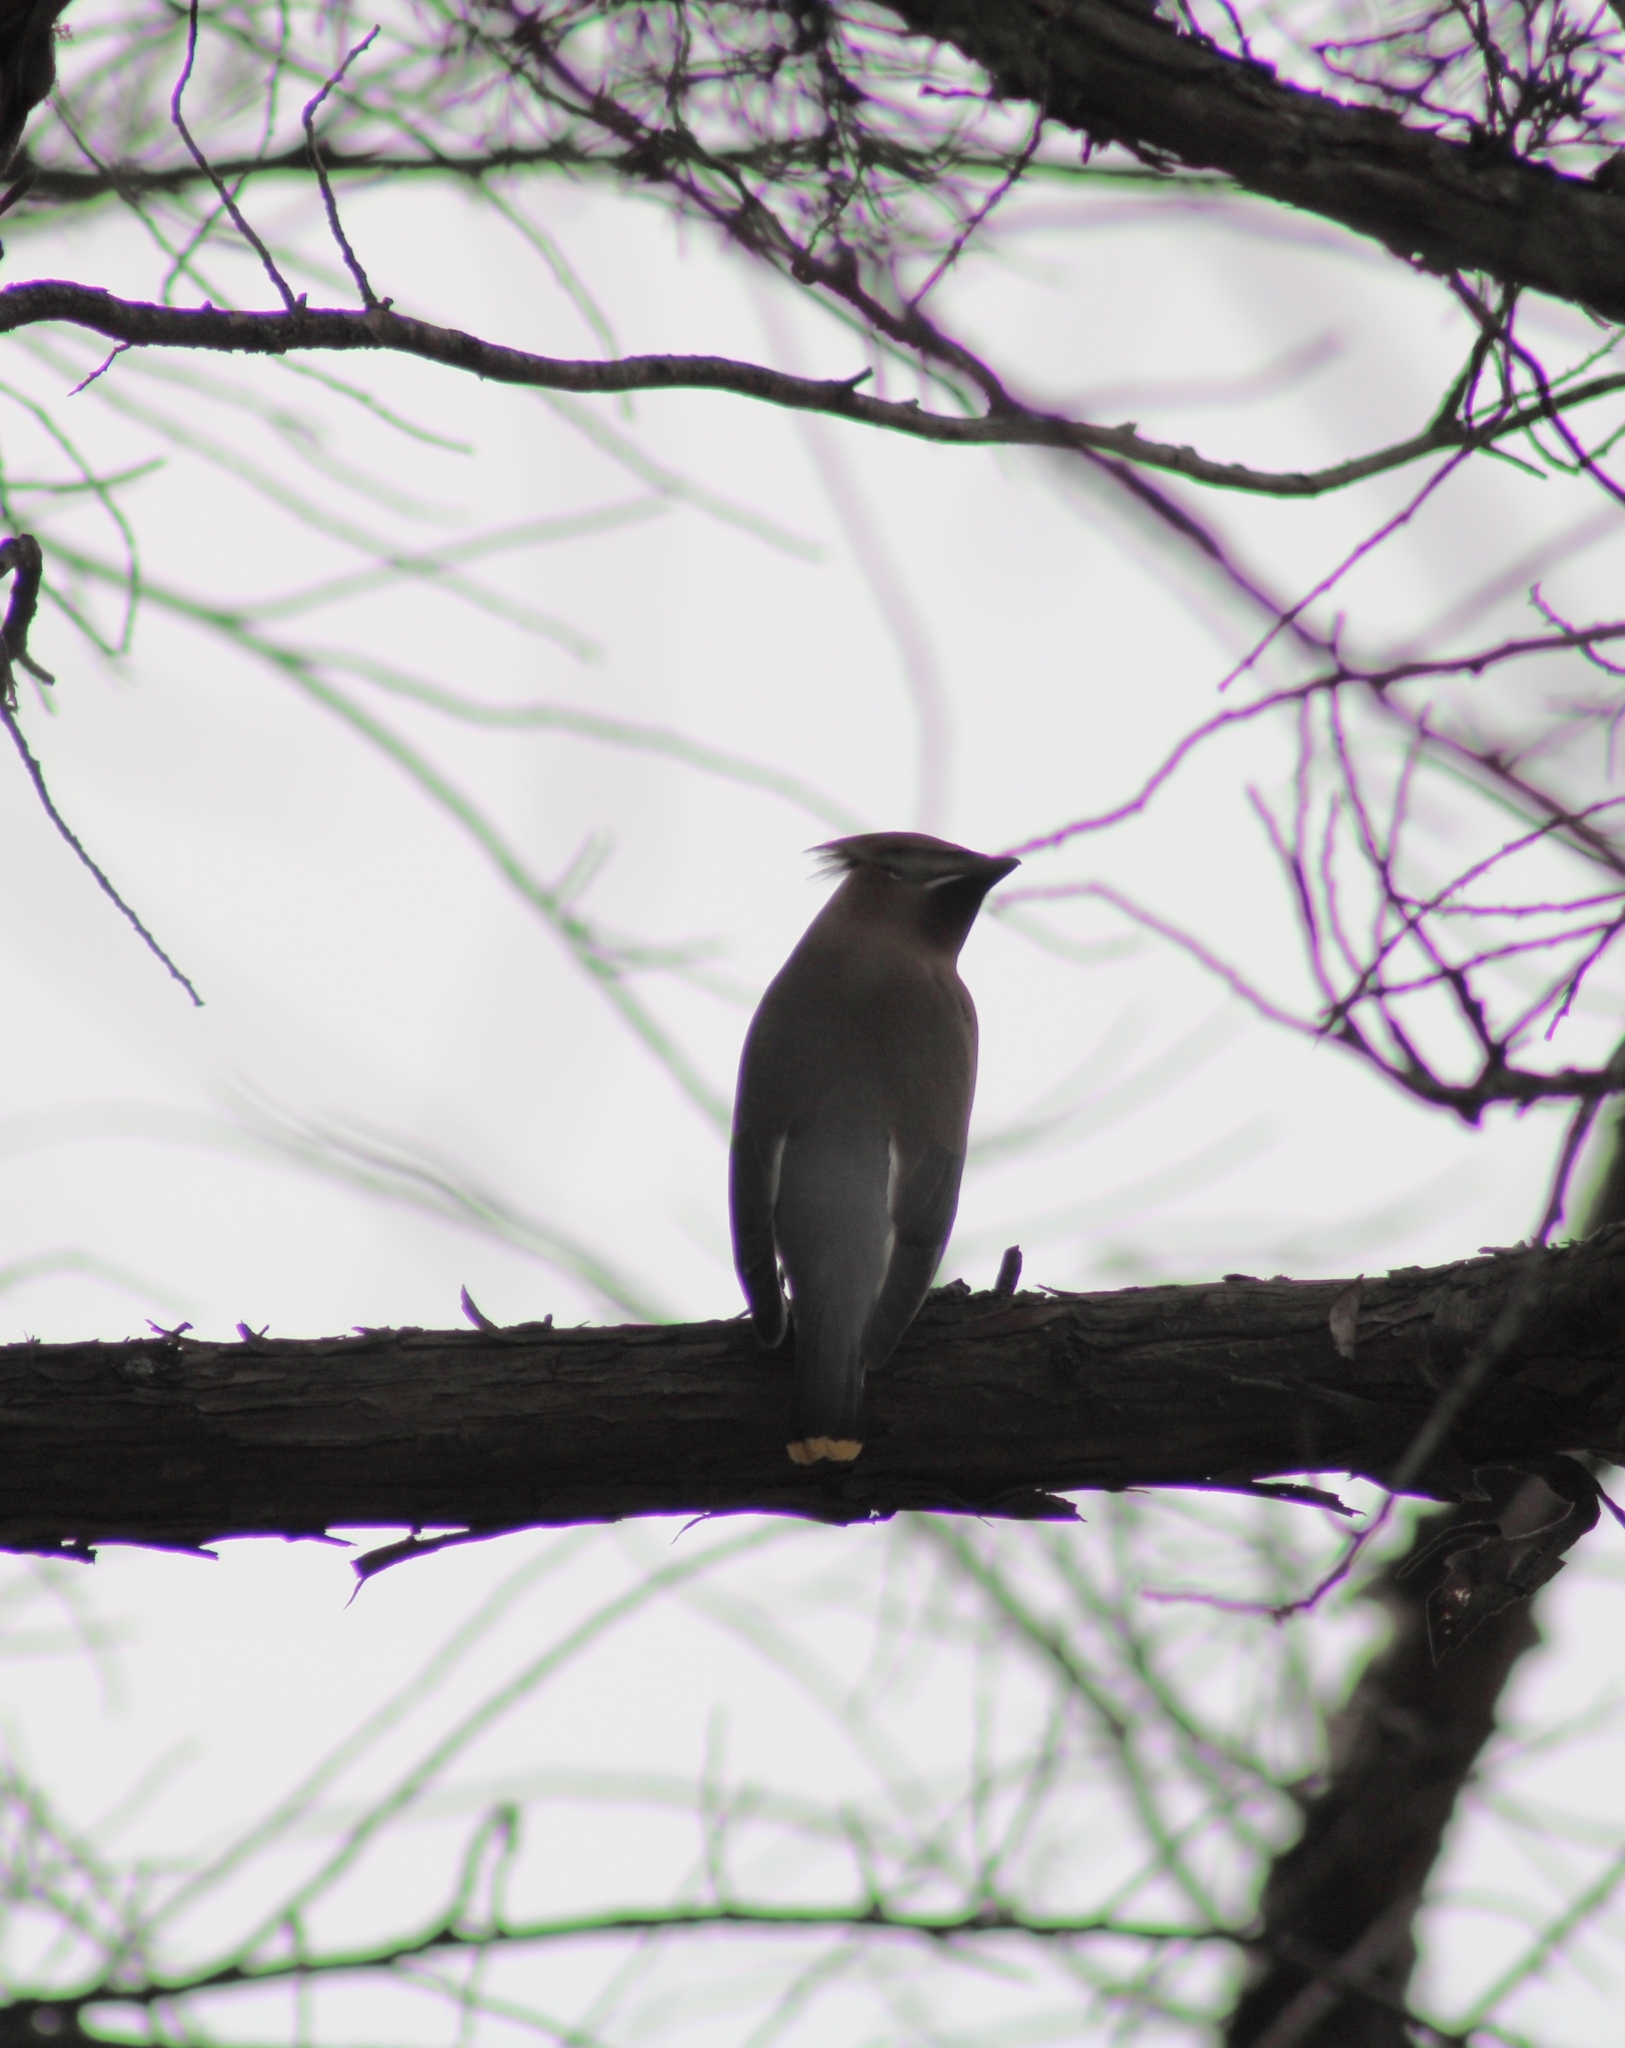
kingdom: Animalia
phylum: Chordata
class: Aves
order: Passeriformes
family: Bombycillidae
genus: Bombycilla
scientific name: Bombycilla cedrorum
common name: Cedar waxwing
